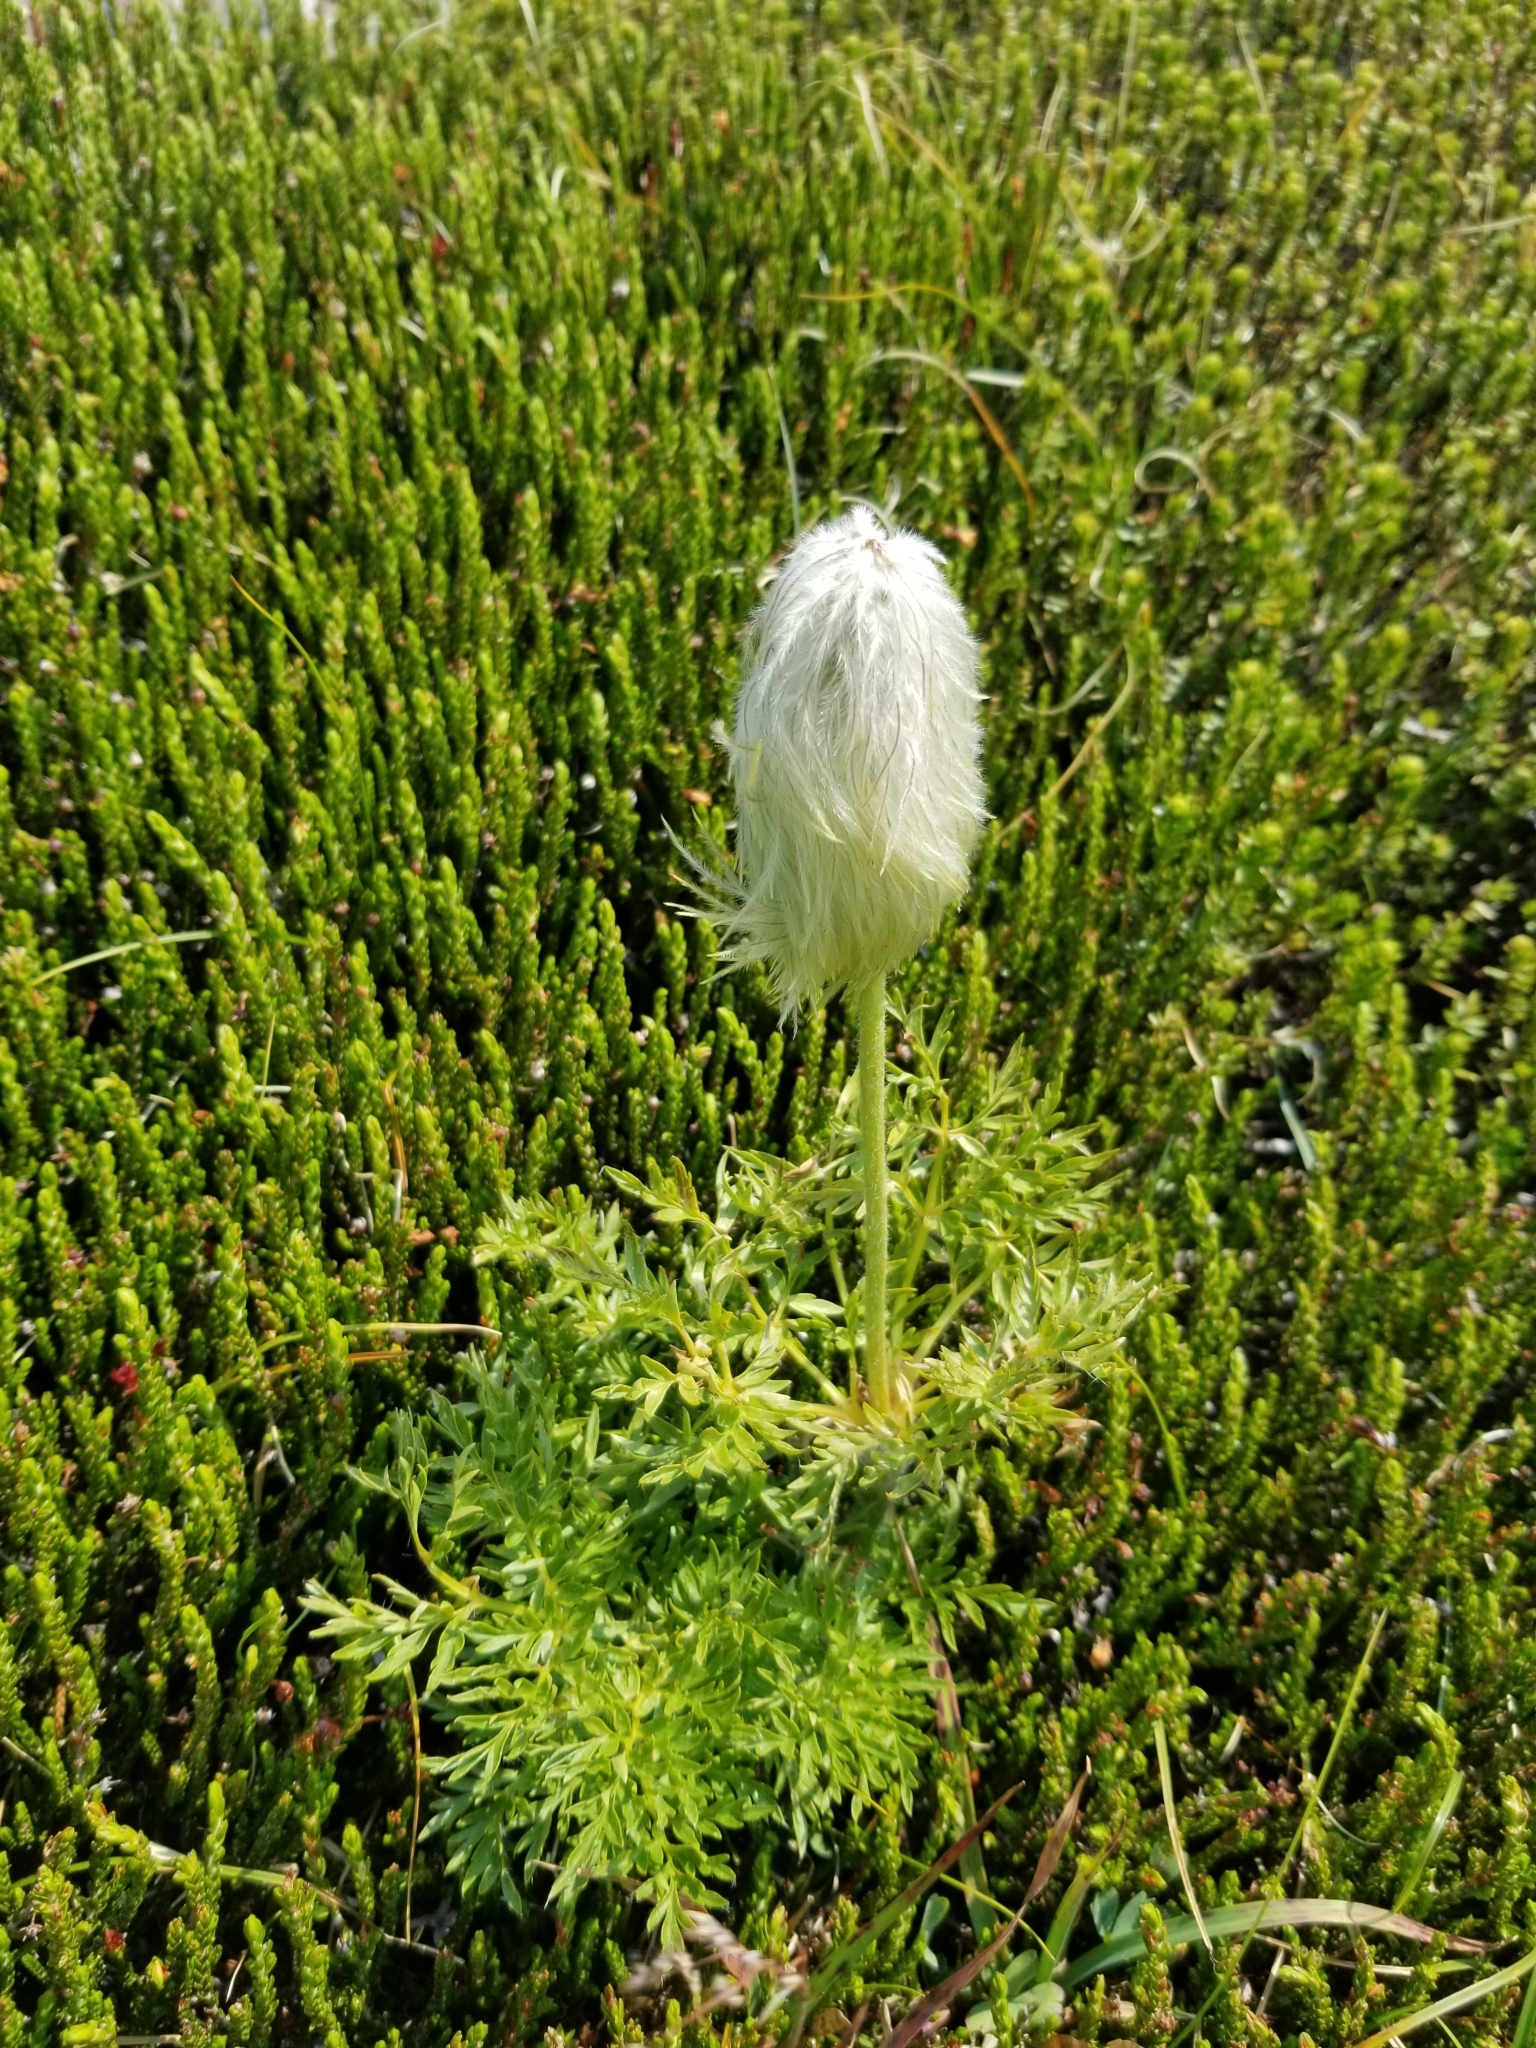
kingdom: Plantae
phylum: Tracheophyta
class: Magnoliopsida
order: Ranunculales
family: Ranunculaceae
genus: Pulsatilla
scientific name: Pulsatilla occidentalis
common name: Mountain pasqueflower
